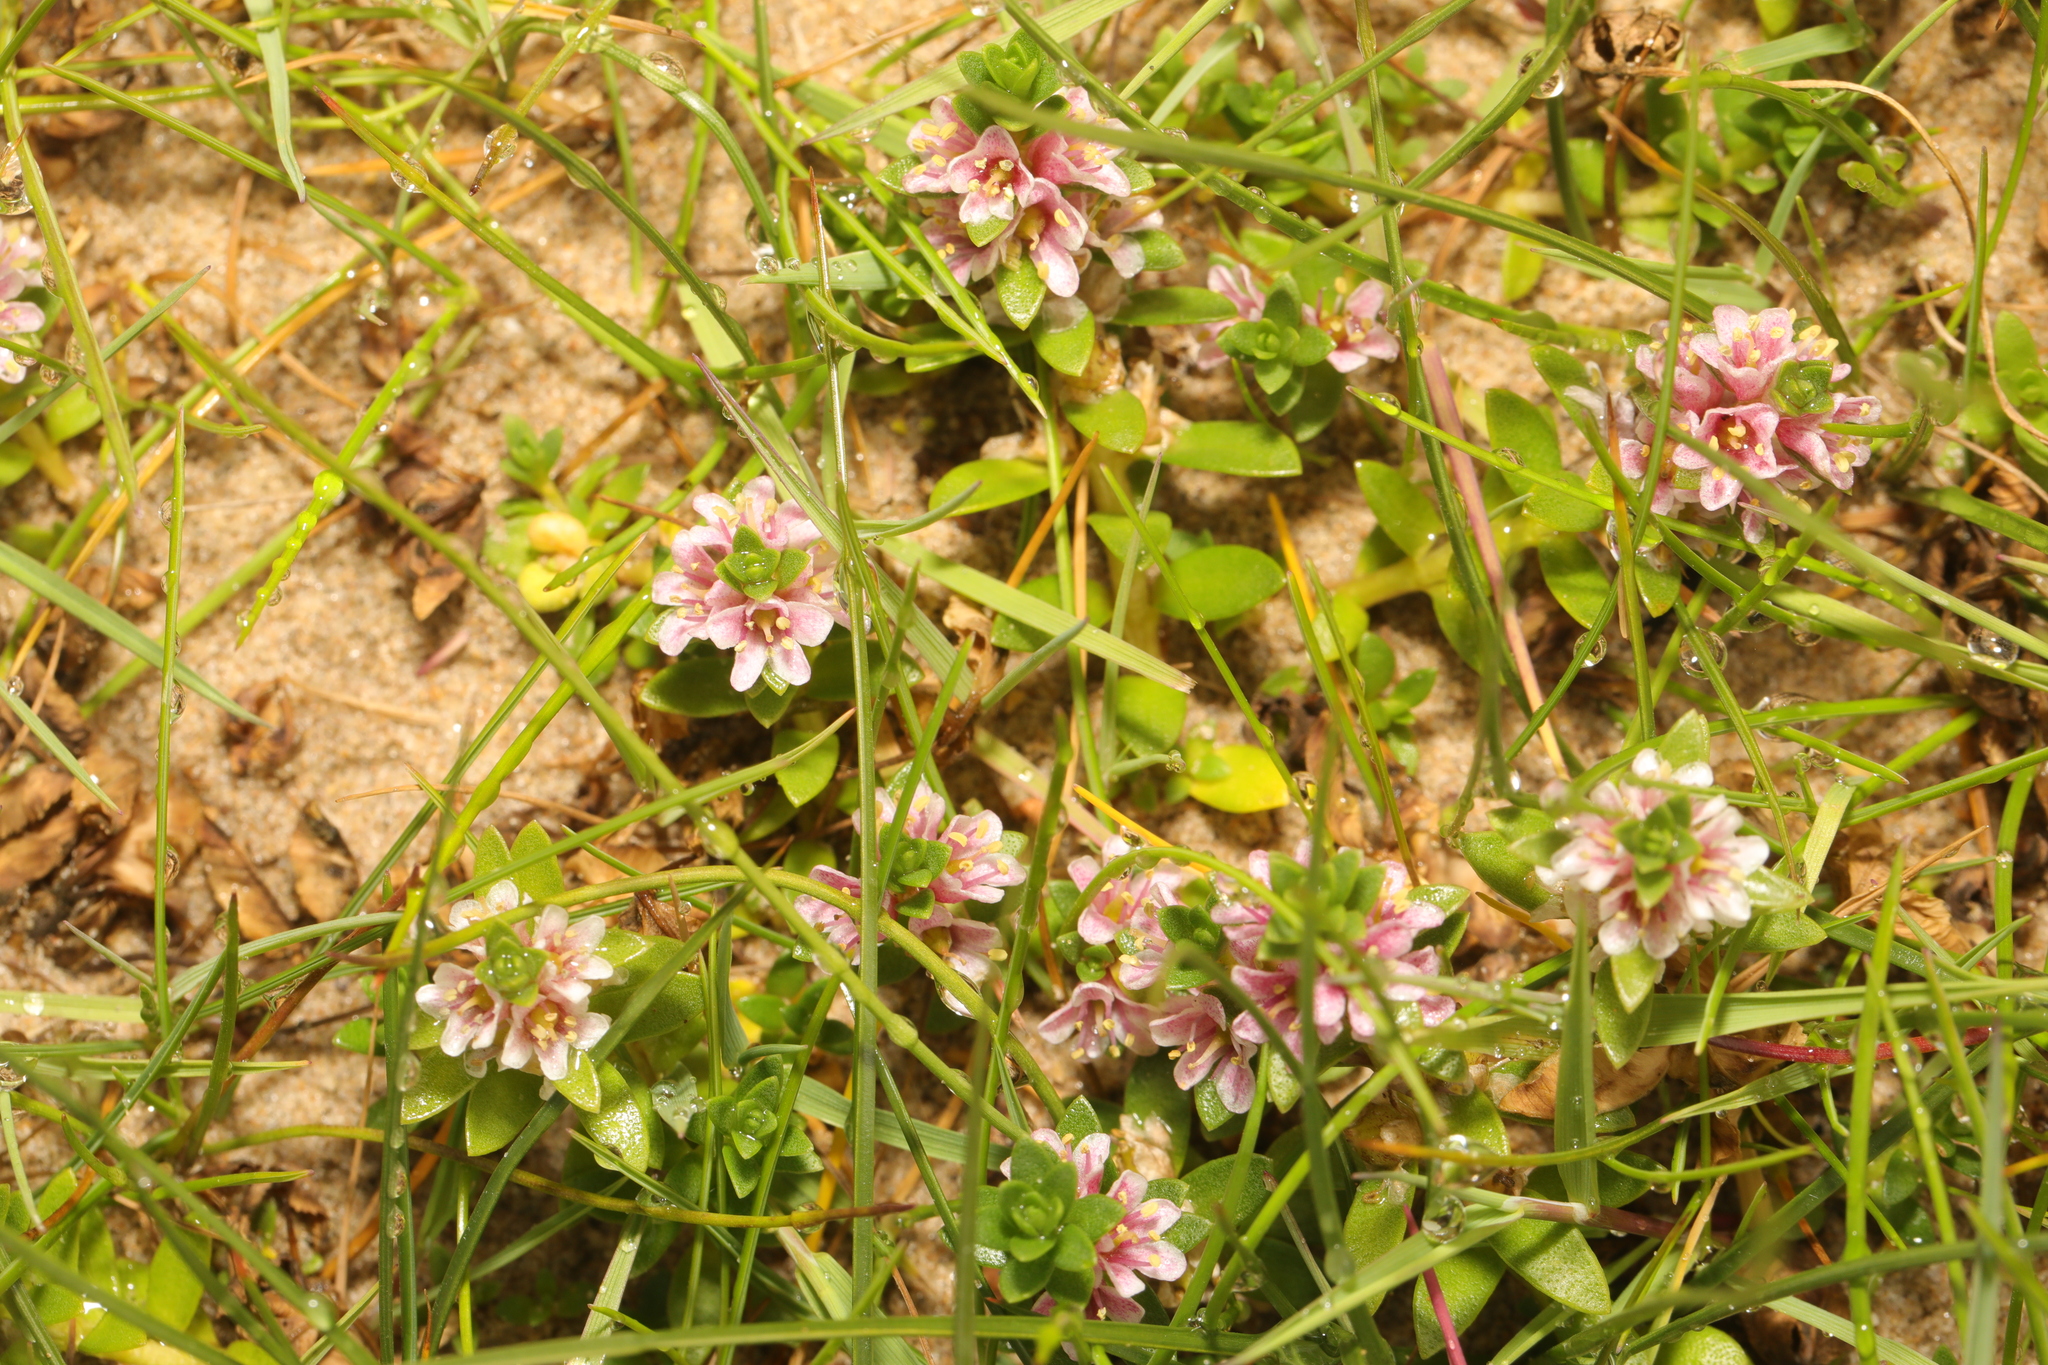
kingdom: Plantae
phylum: Tracheophyta
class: Magnoliopsida
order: Ericales
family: Primulaceae
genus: Lysimachia
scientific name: Lysimachia maritima
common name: Sea milkwort
